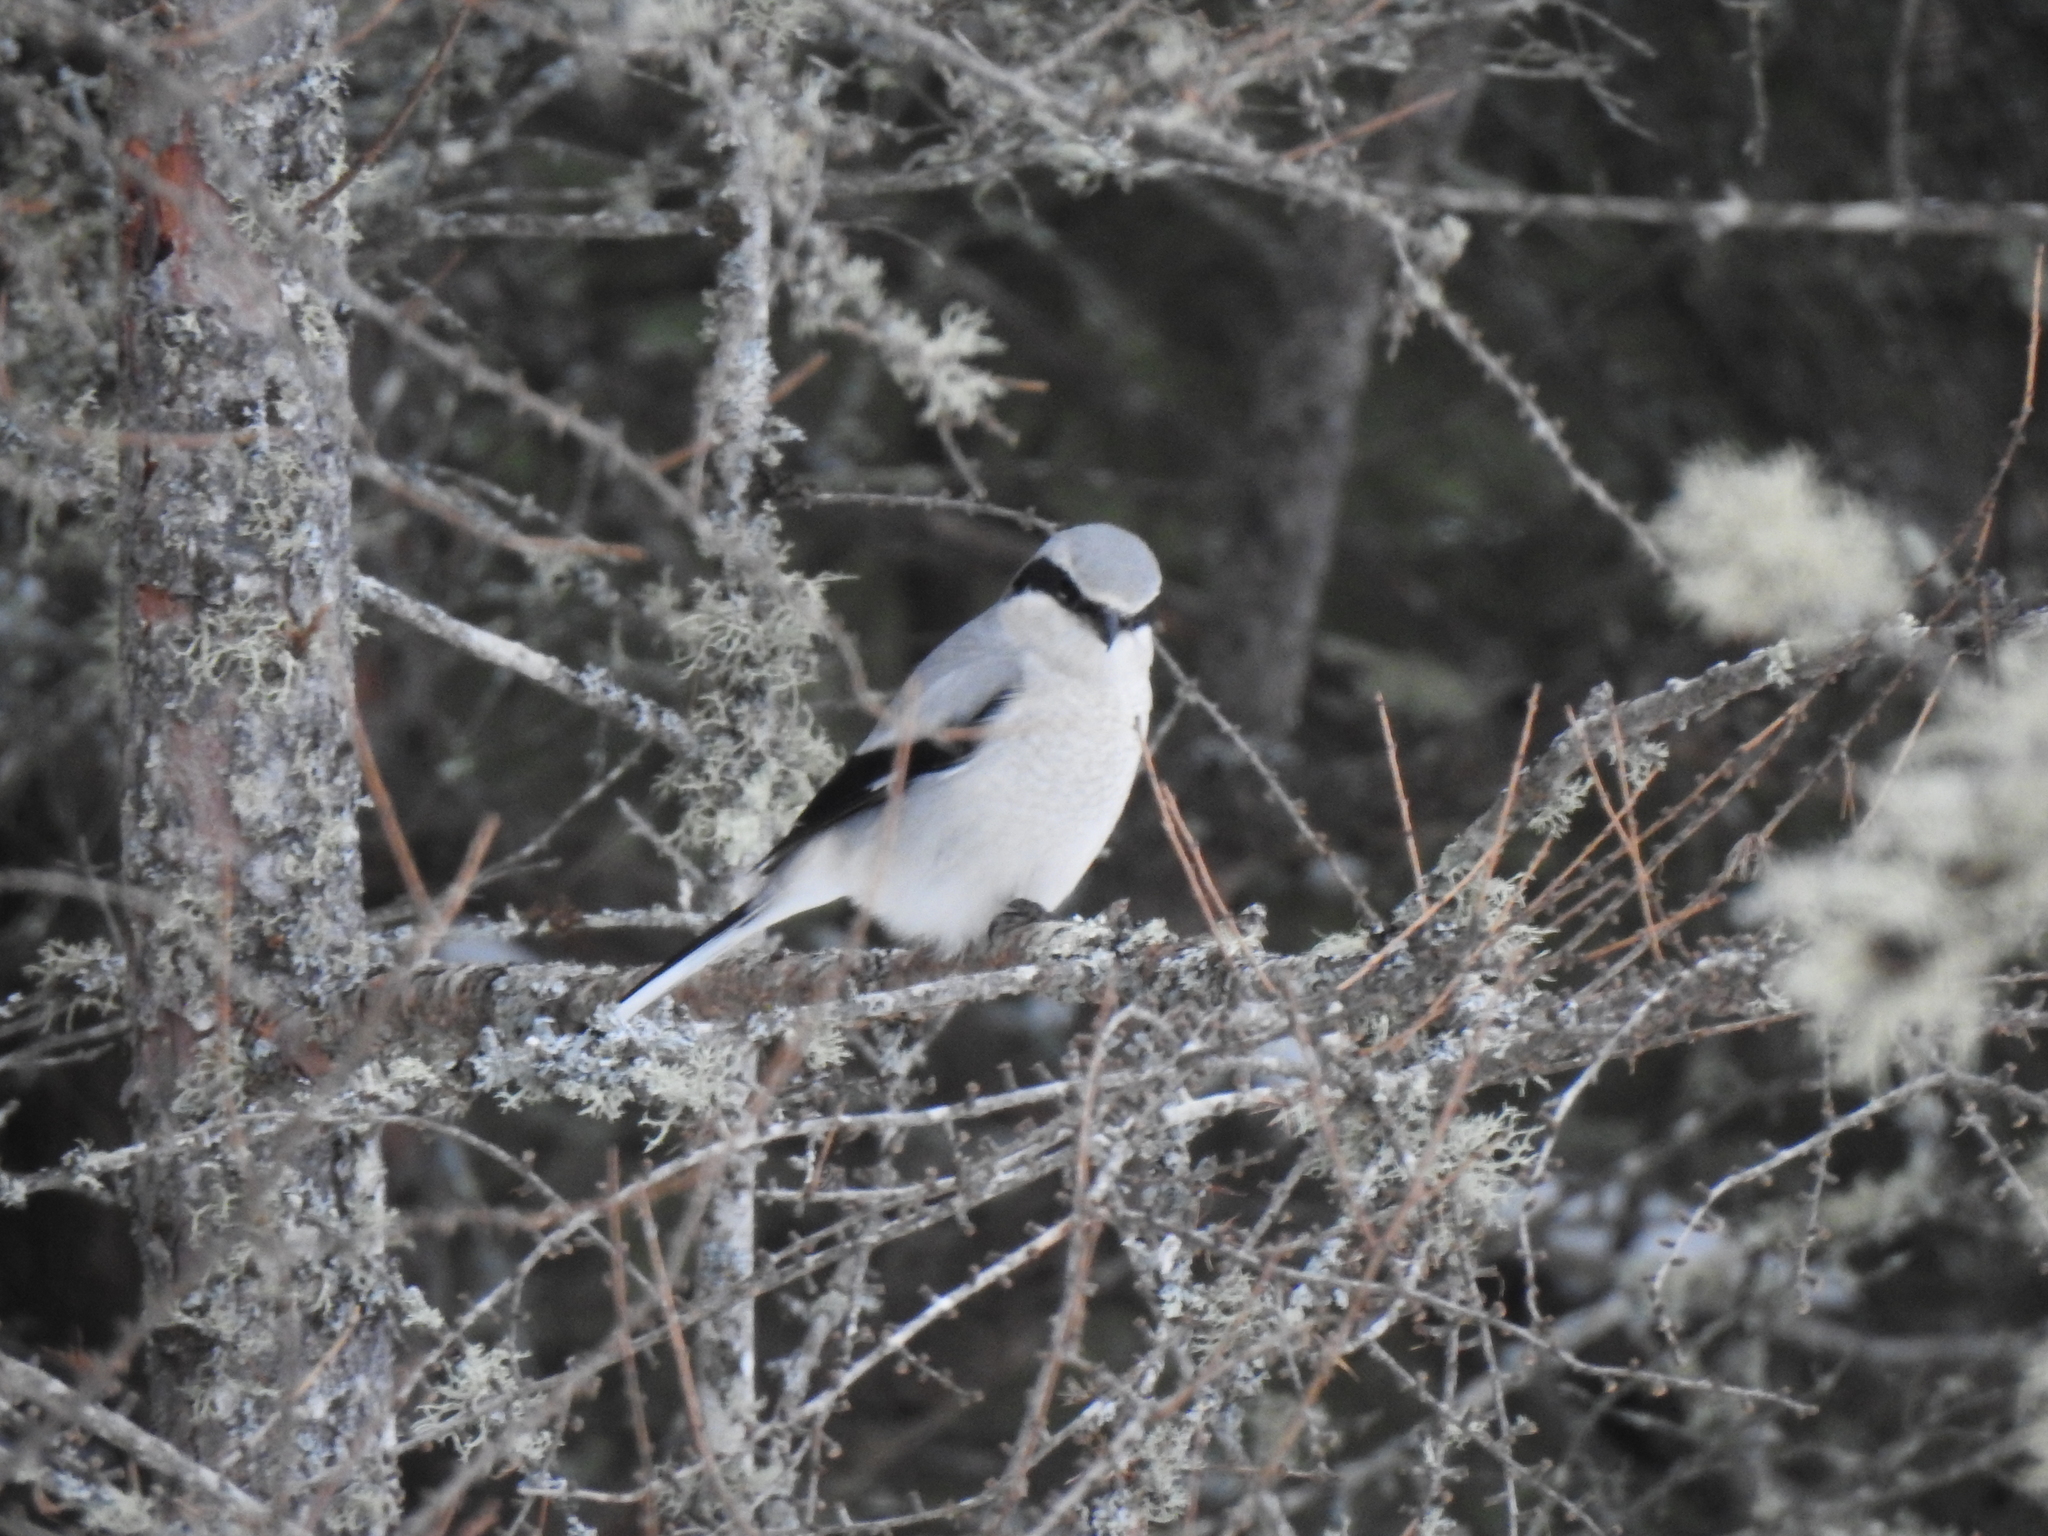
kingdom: Animalia
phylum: Chordata
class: Aves
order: Passeriformes
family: Laniidae
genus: Lanius
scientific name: Lanius borealis
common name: Northern shrike
